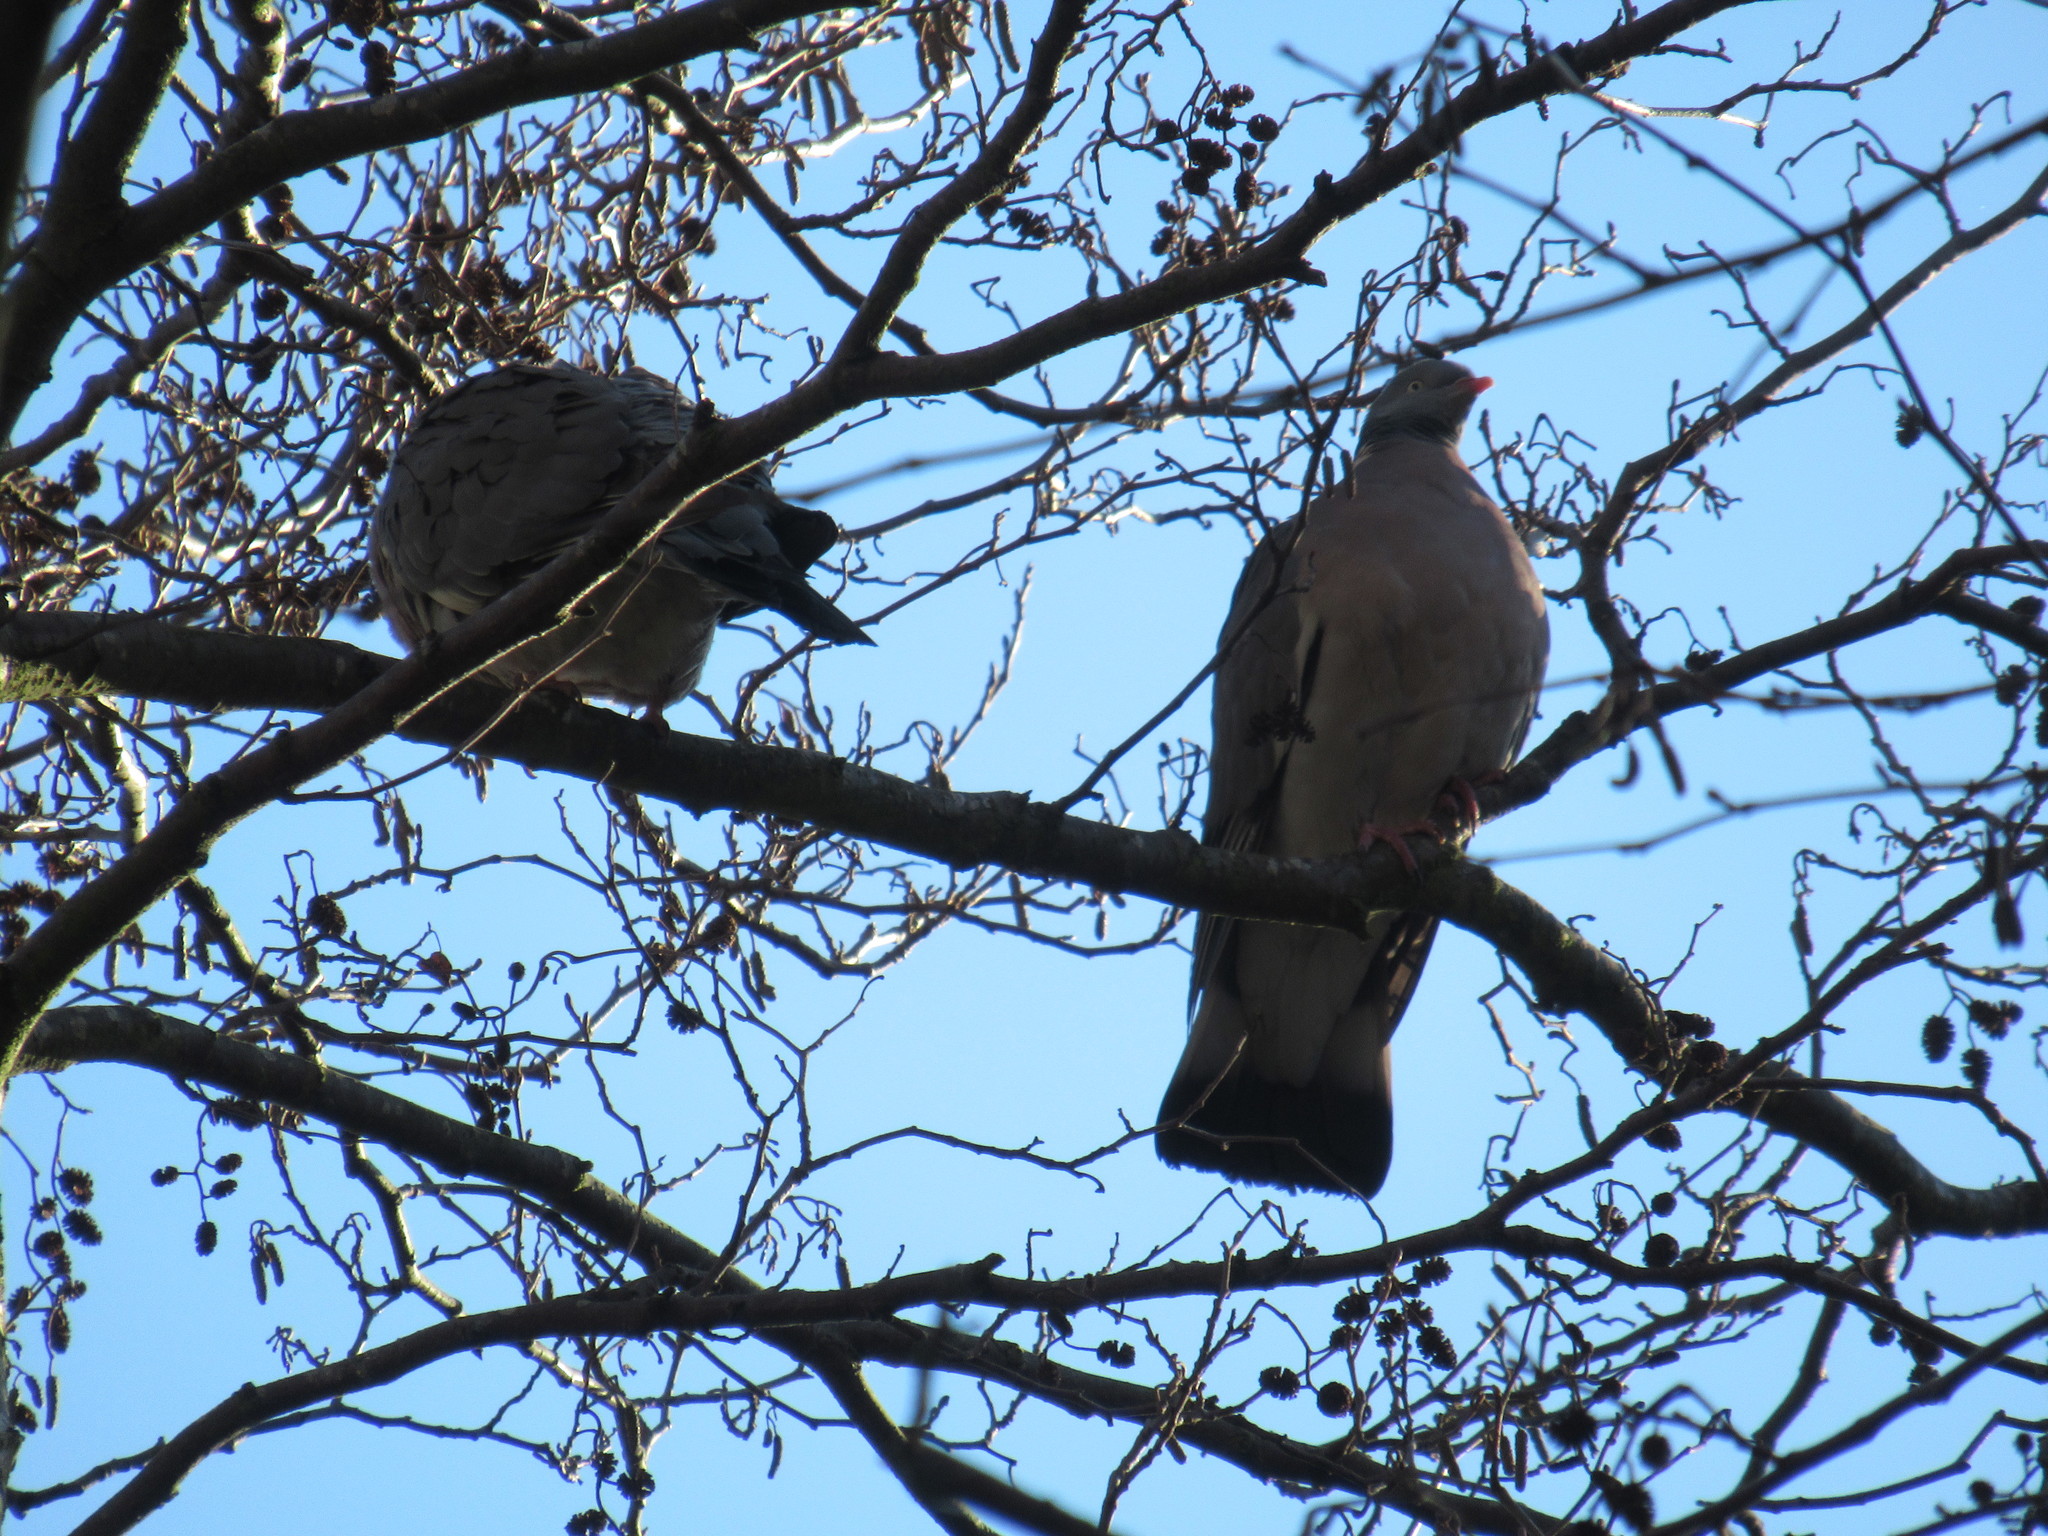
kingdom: Animalia
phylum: Chordata
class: Aves
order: Columbiformes
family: Columbidae
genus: Columba
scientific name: Columba palumbus
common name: Common wood pigeon
